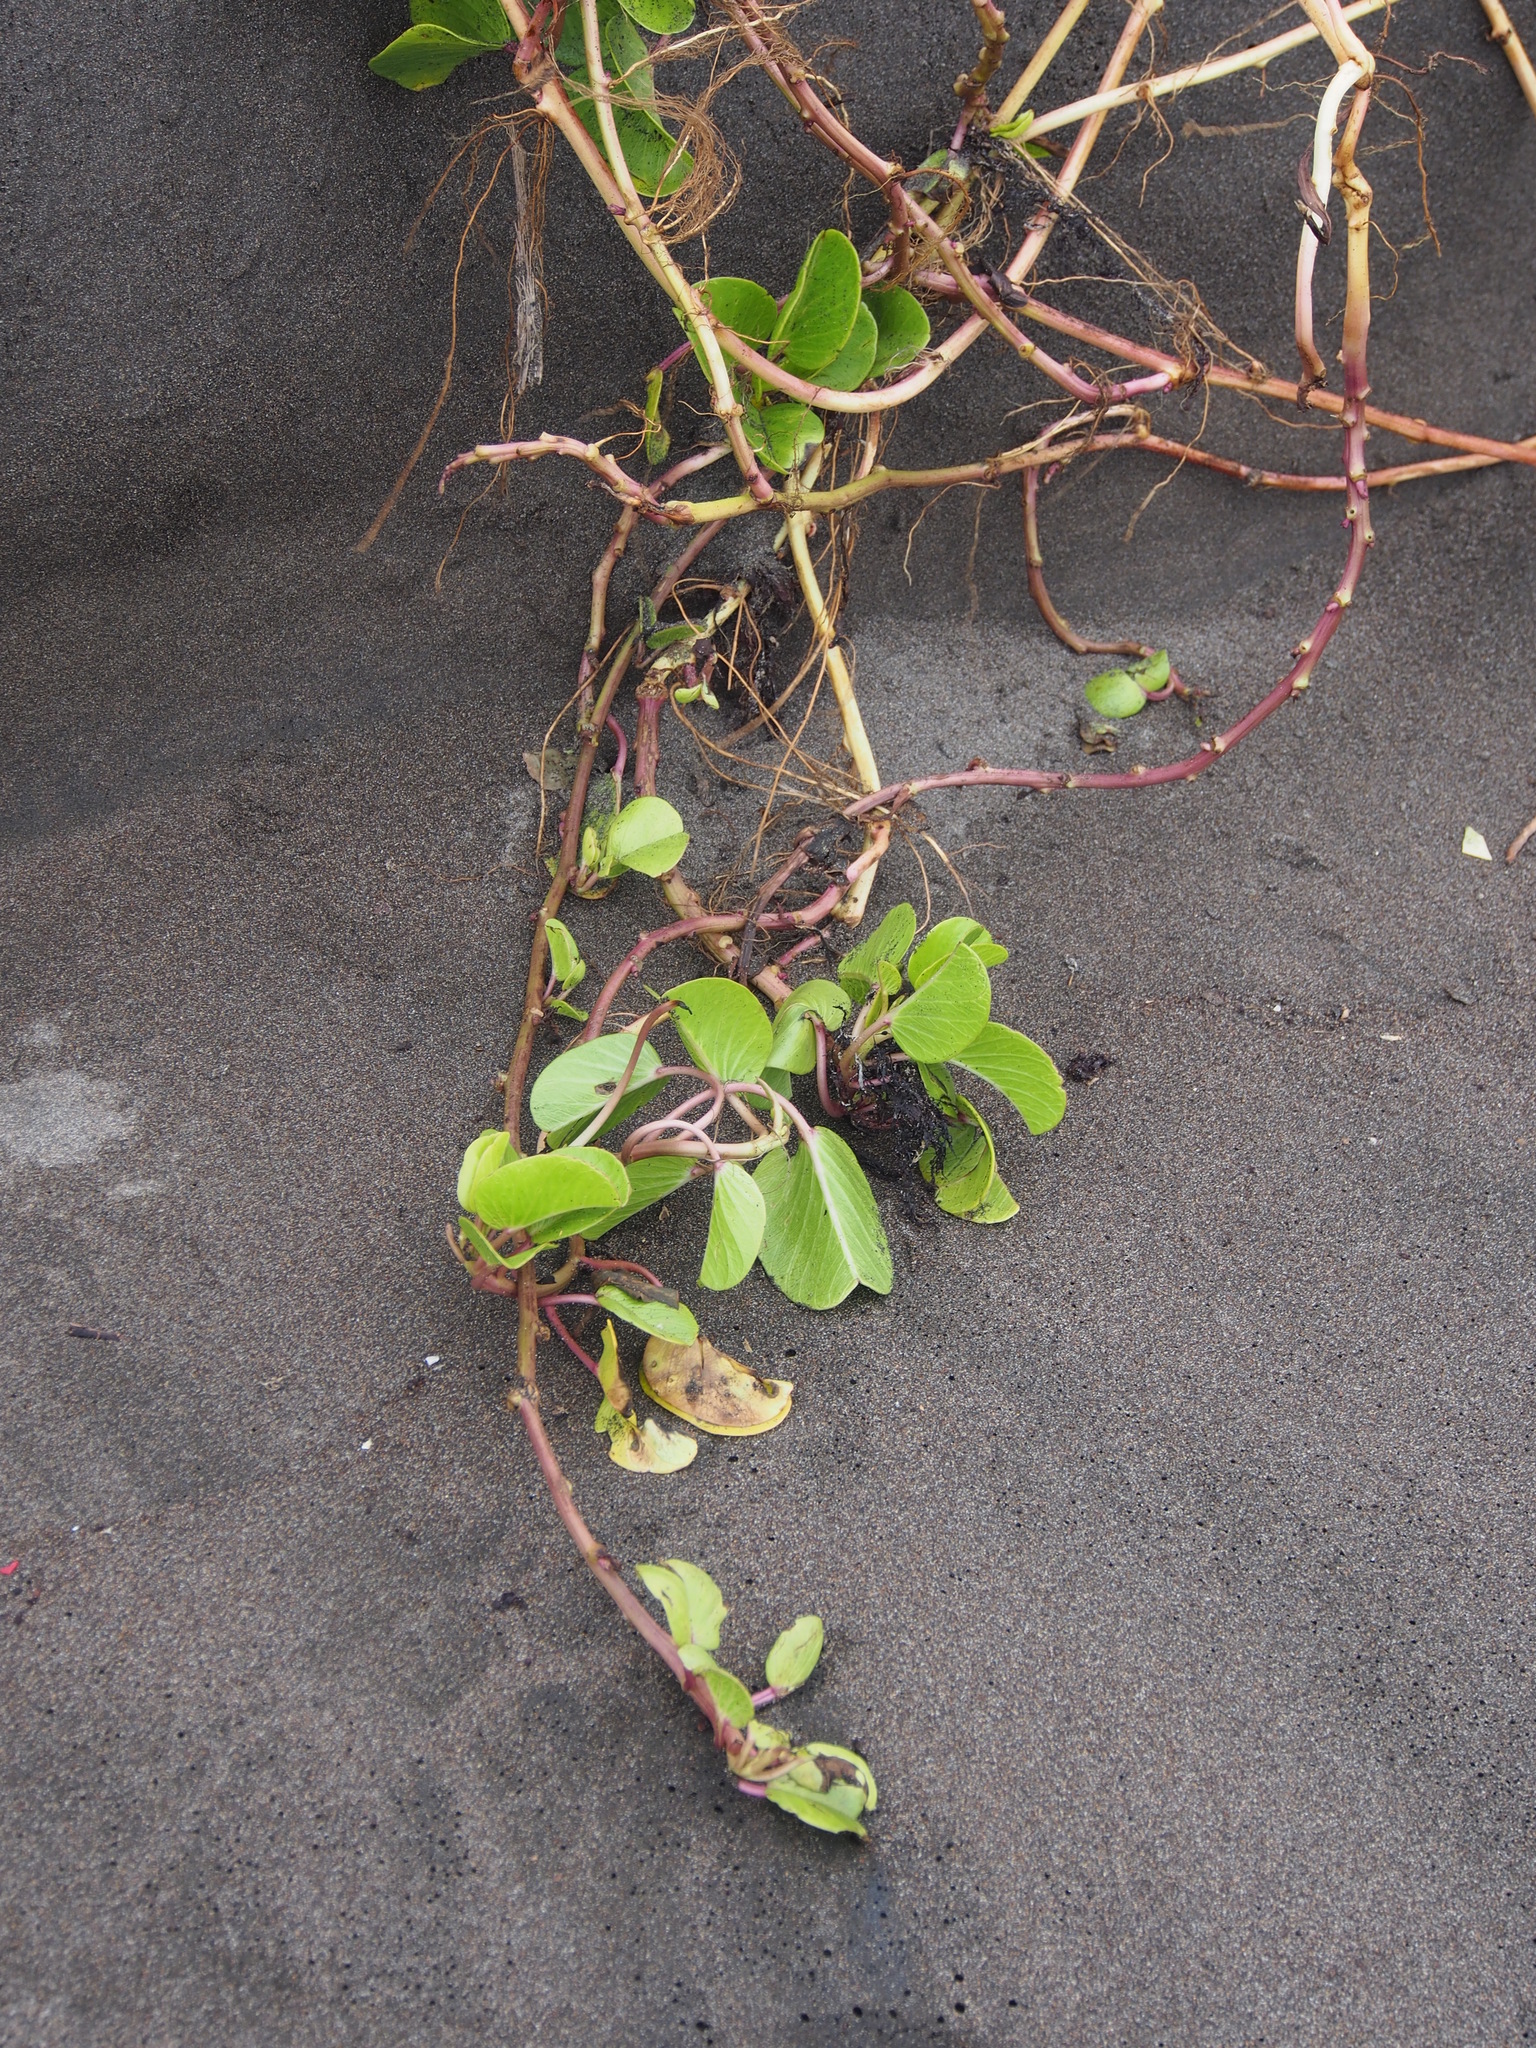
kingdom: Plantae
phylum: Tracheophyta
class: Magnoliopsida
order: Solanales
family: Convolvulaceae
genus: Ipomoea
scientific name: Ipomoea pes-caprae
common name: Beach morning glory
